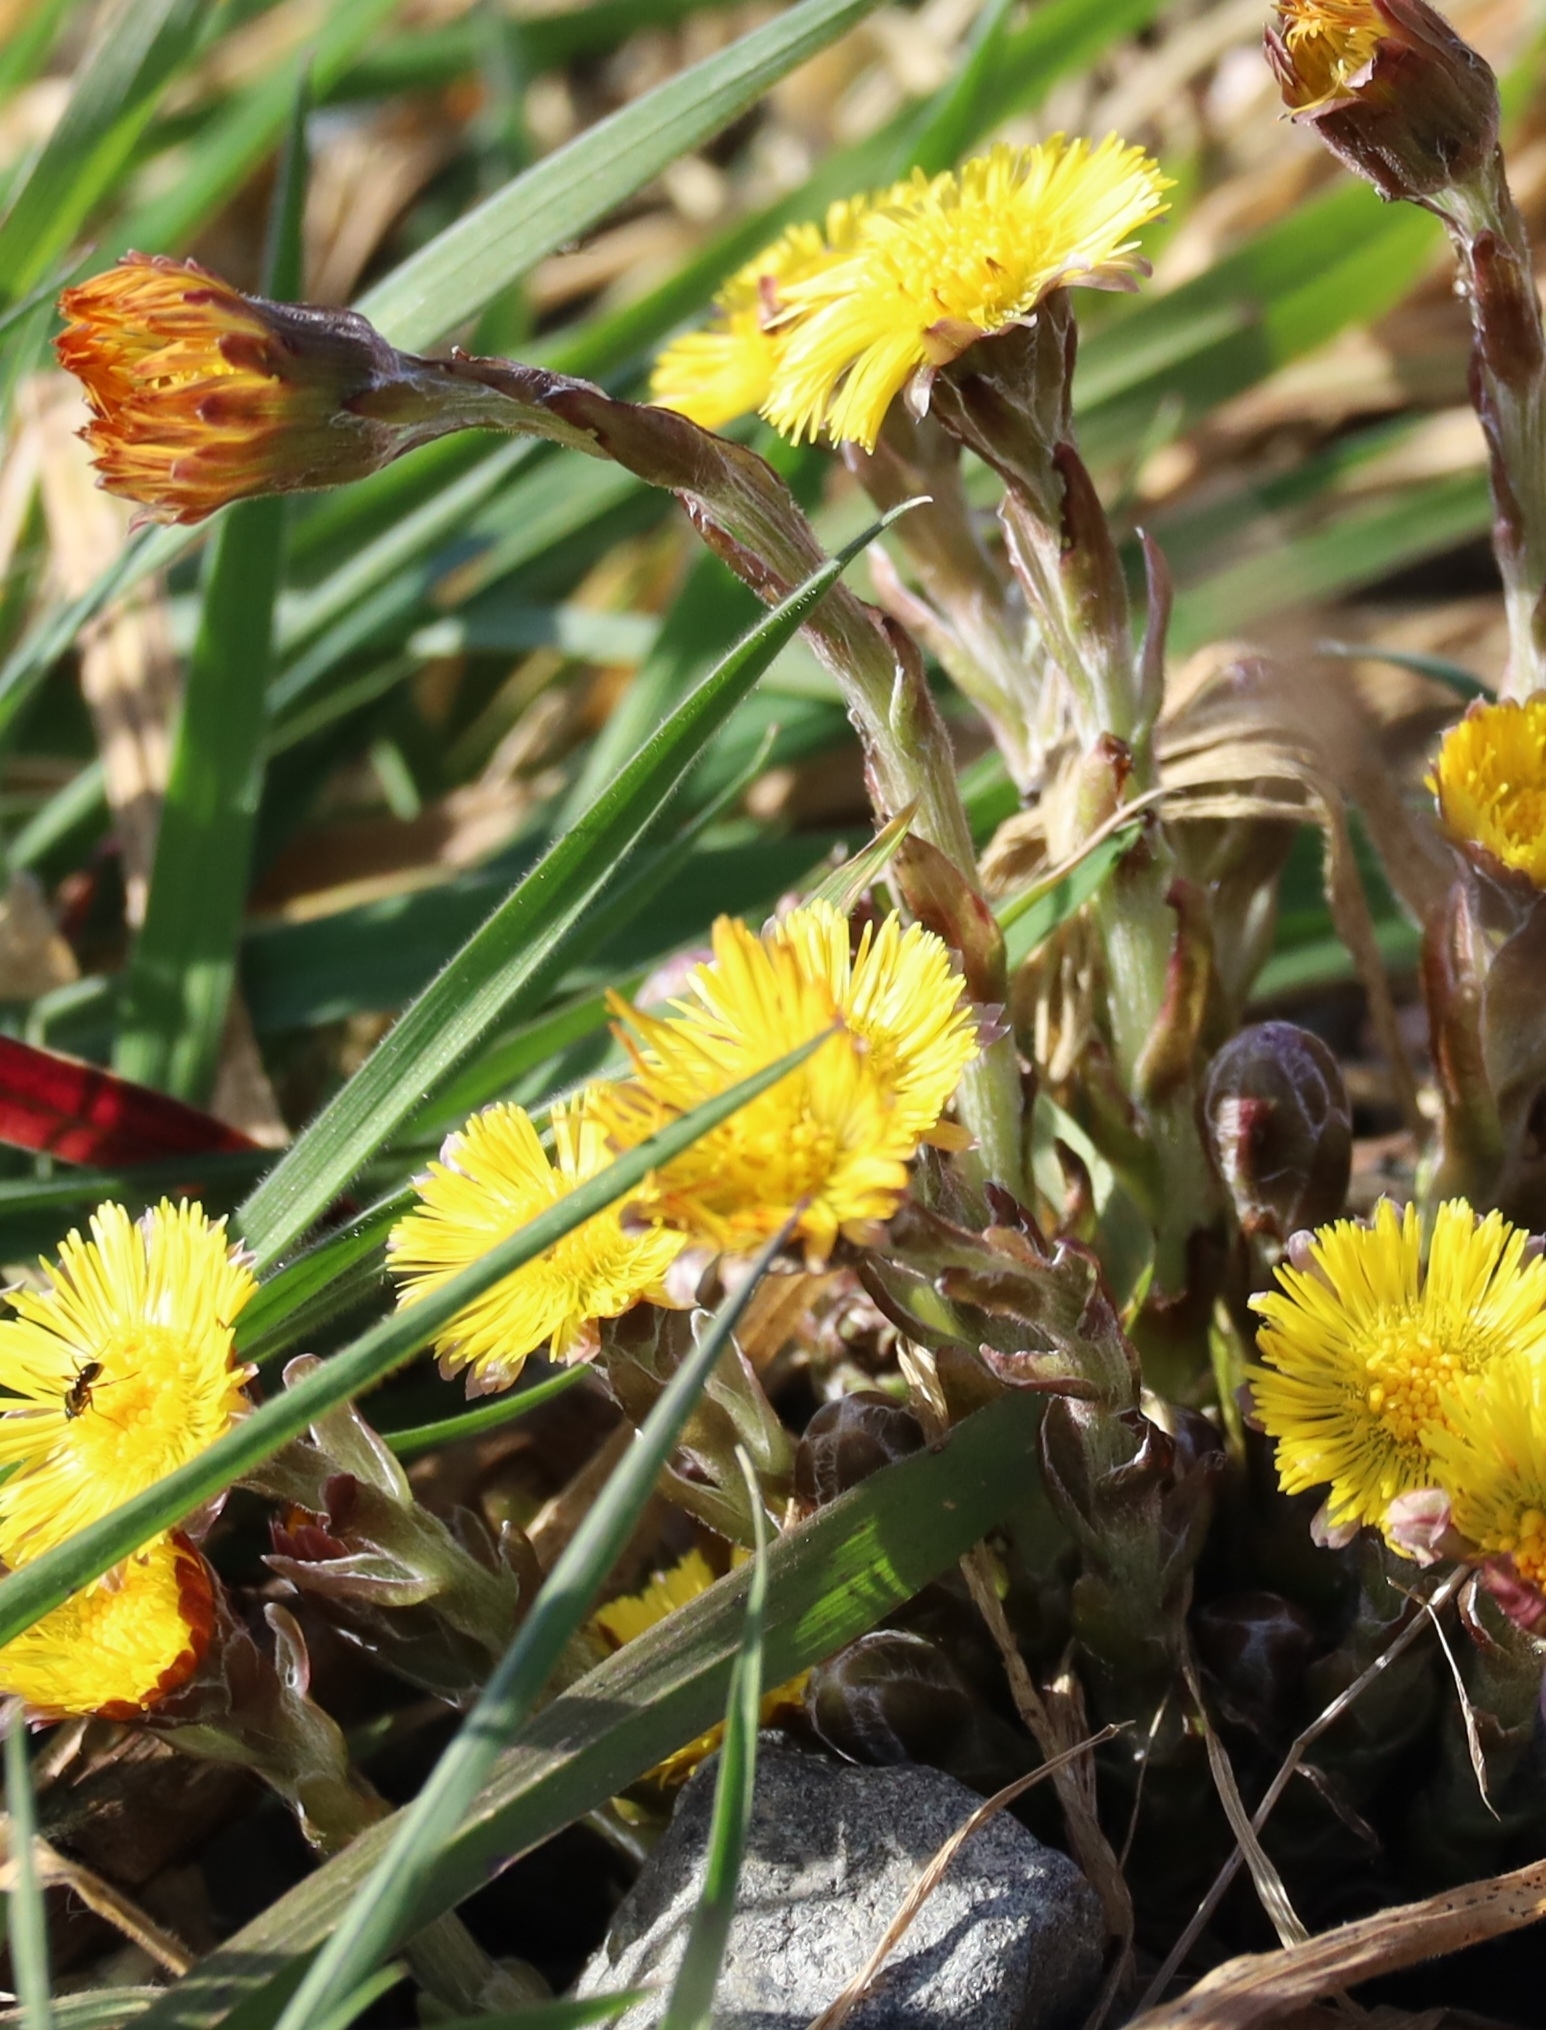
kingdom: Plantae
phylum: Tracheophyta
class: Magnoliopsida
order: Asterales
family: Asteraceae
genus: Tussilago
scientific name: Tussilago farfara
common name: Coltsfoot
